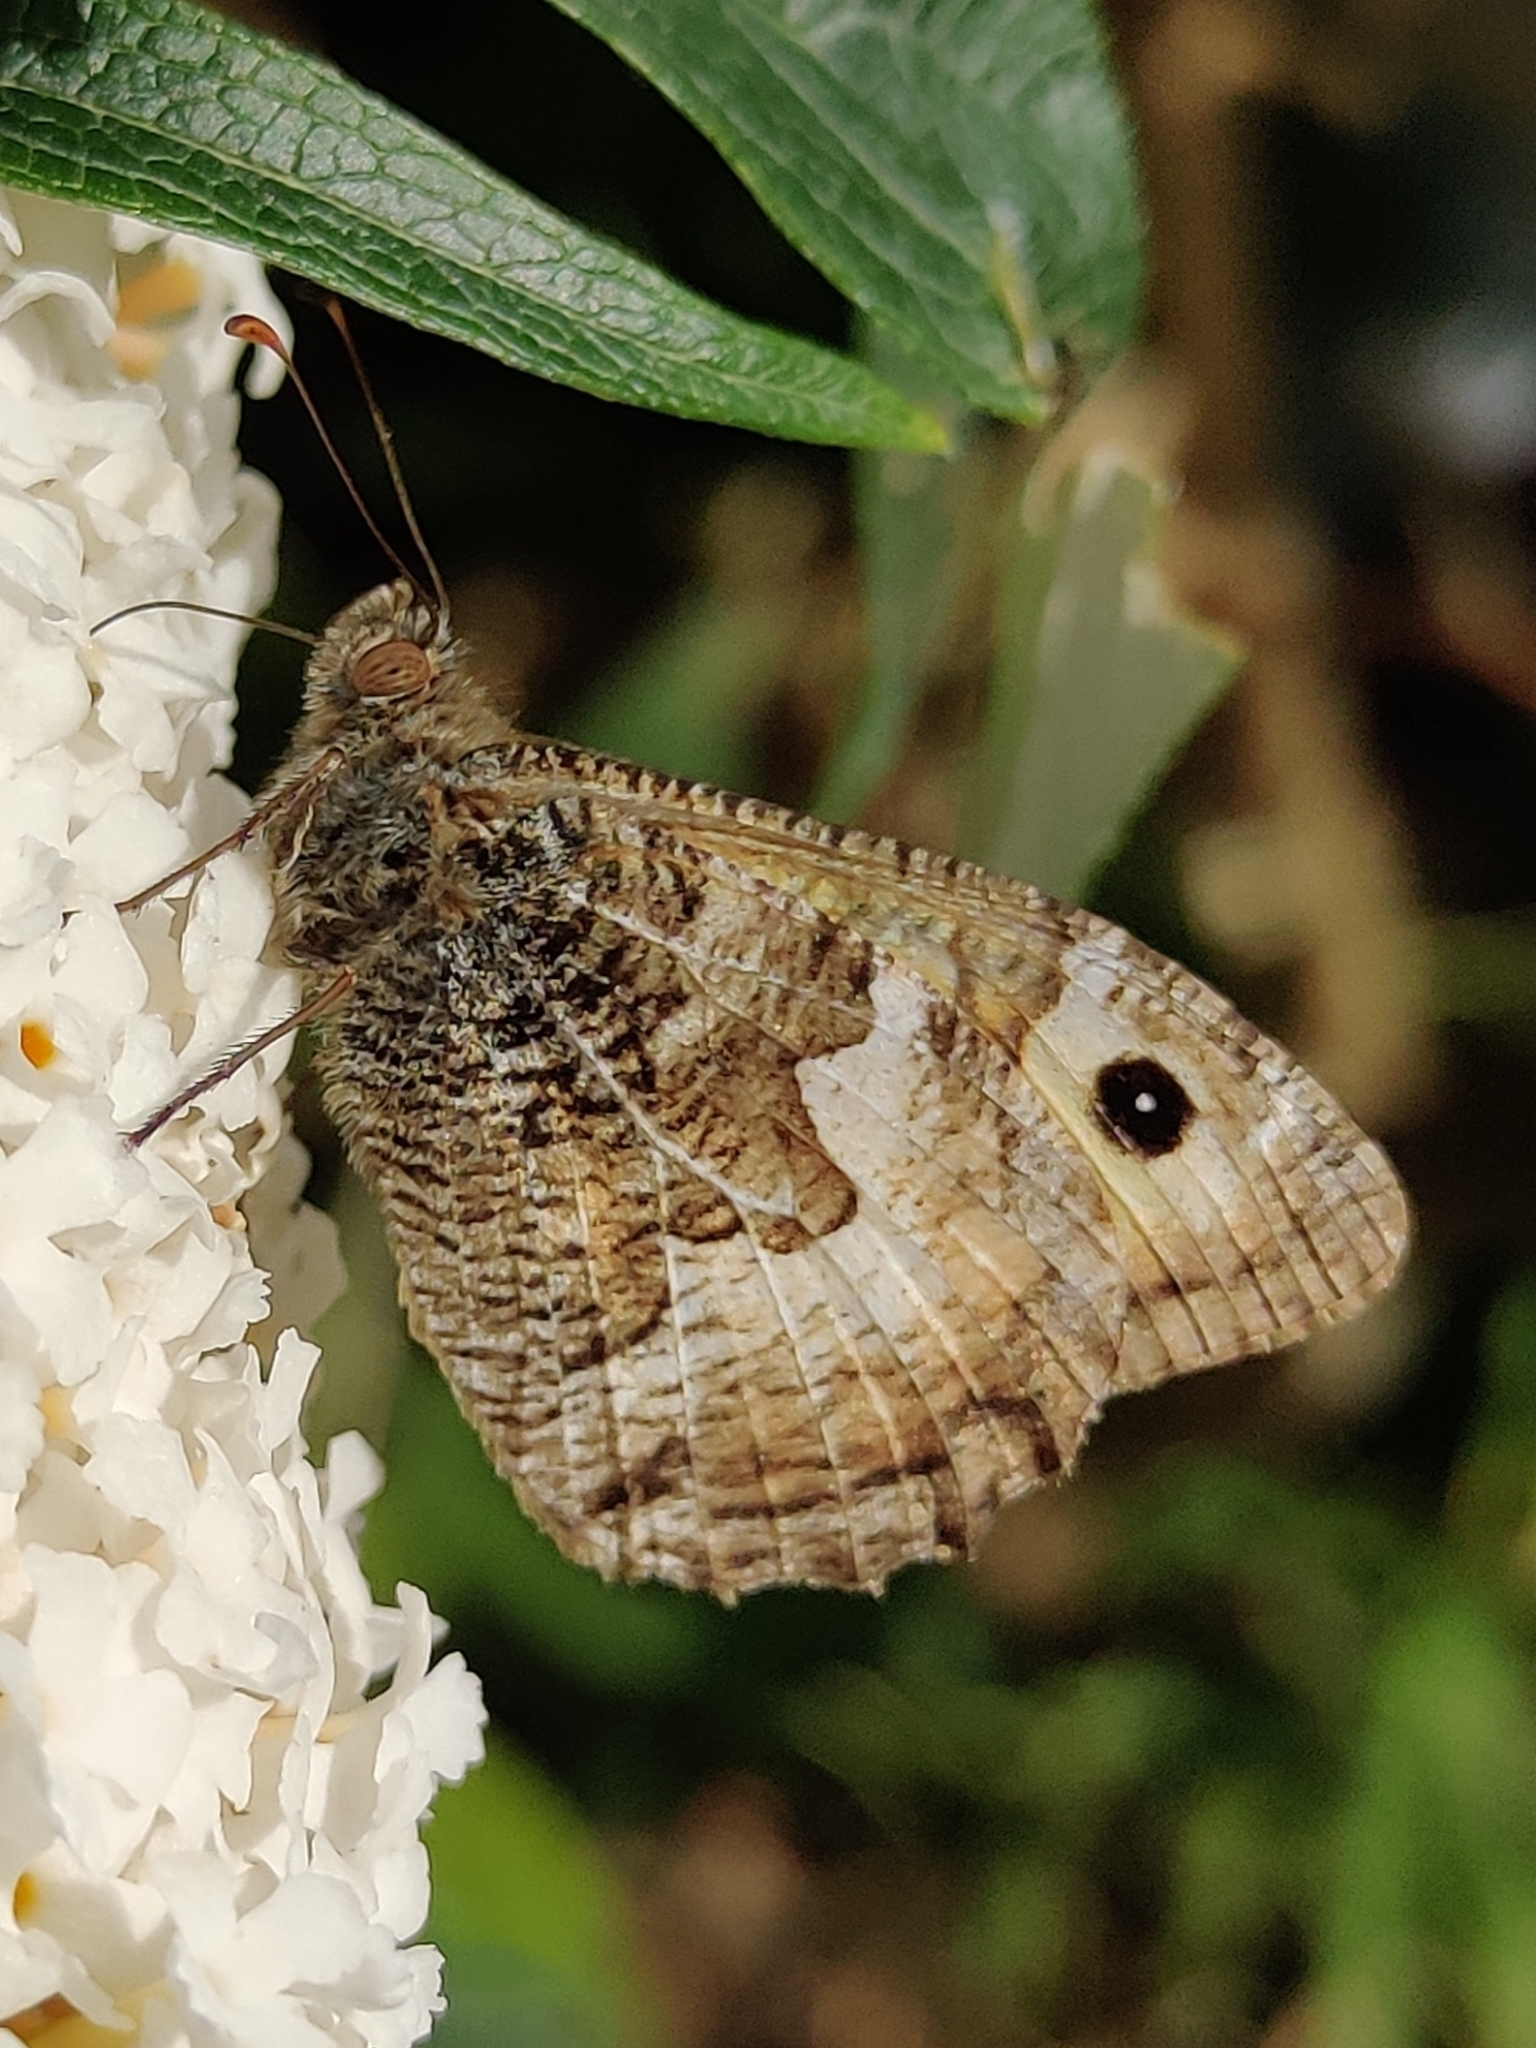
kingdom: Animalia
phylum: Arthropoda
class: Insecta
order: Lepidoptera
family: Nymphalidae
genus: Hipparchia
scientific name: Hipparchia semele
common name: Grayling
